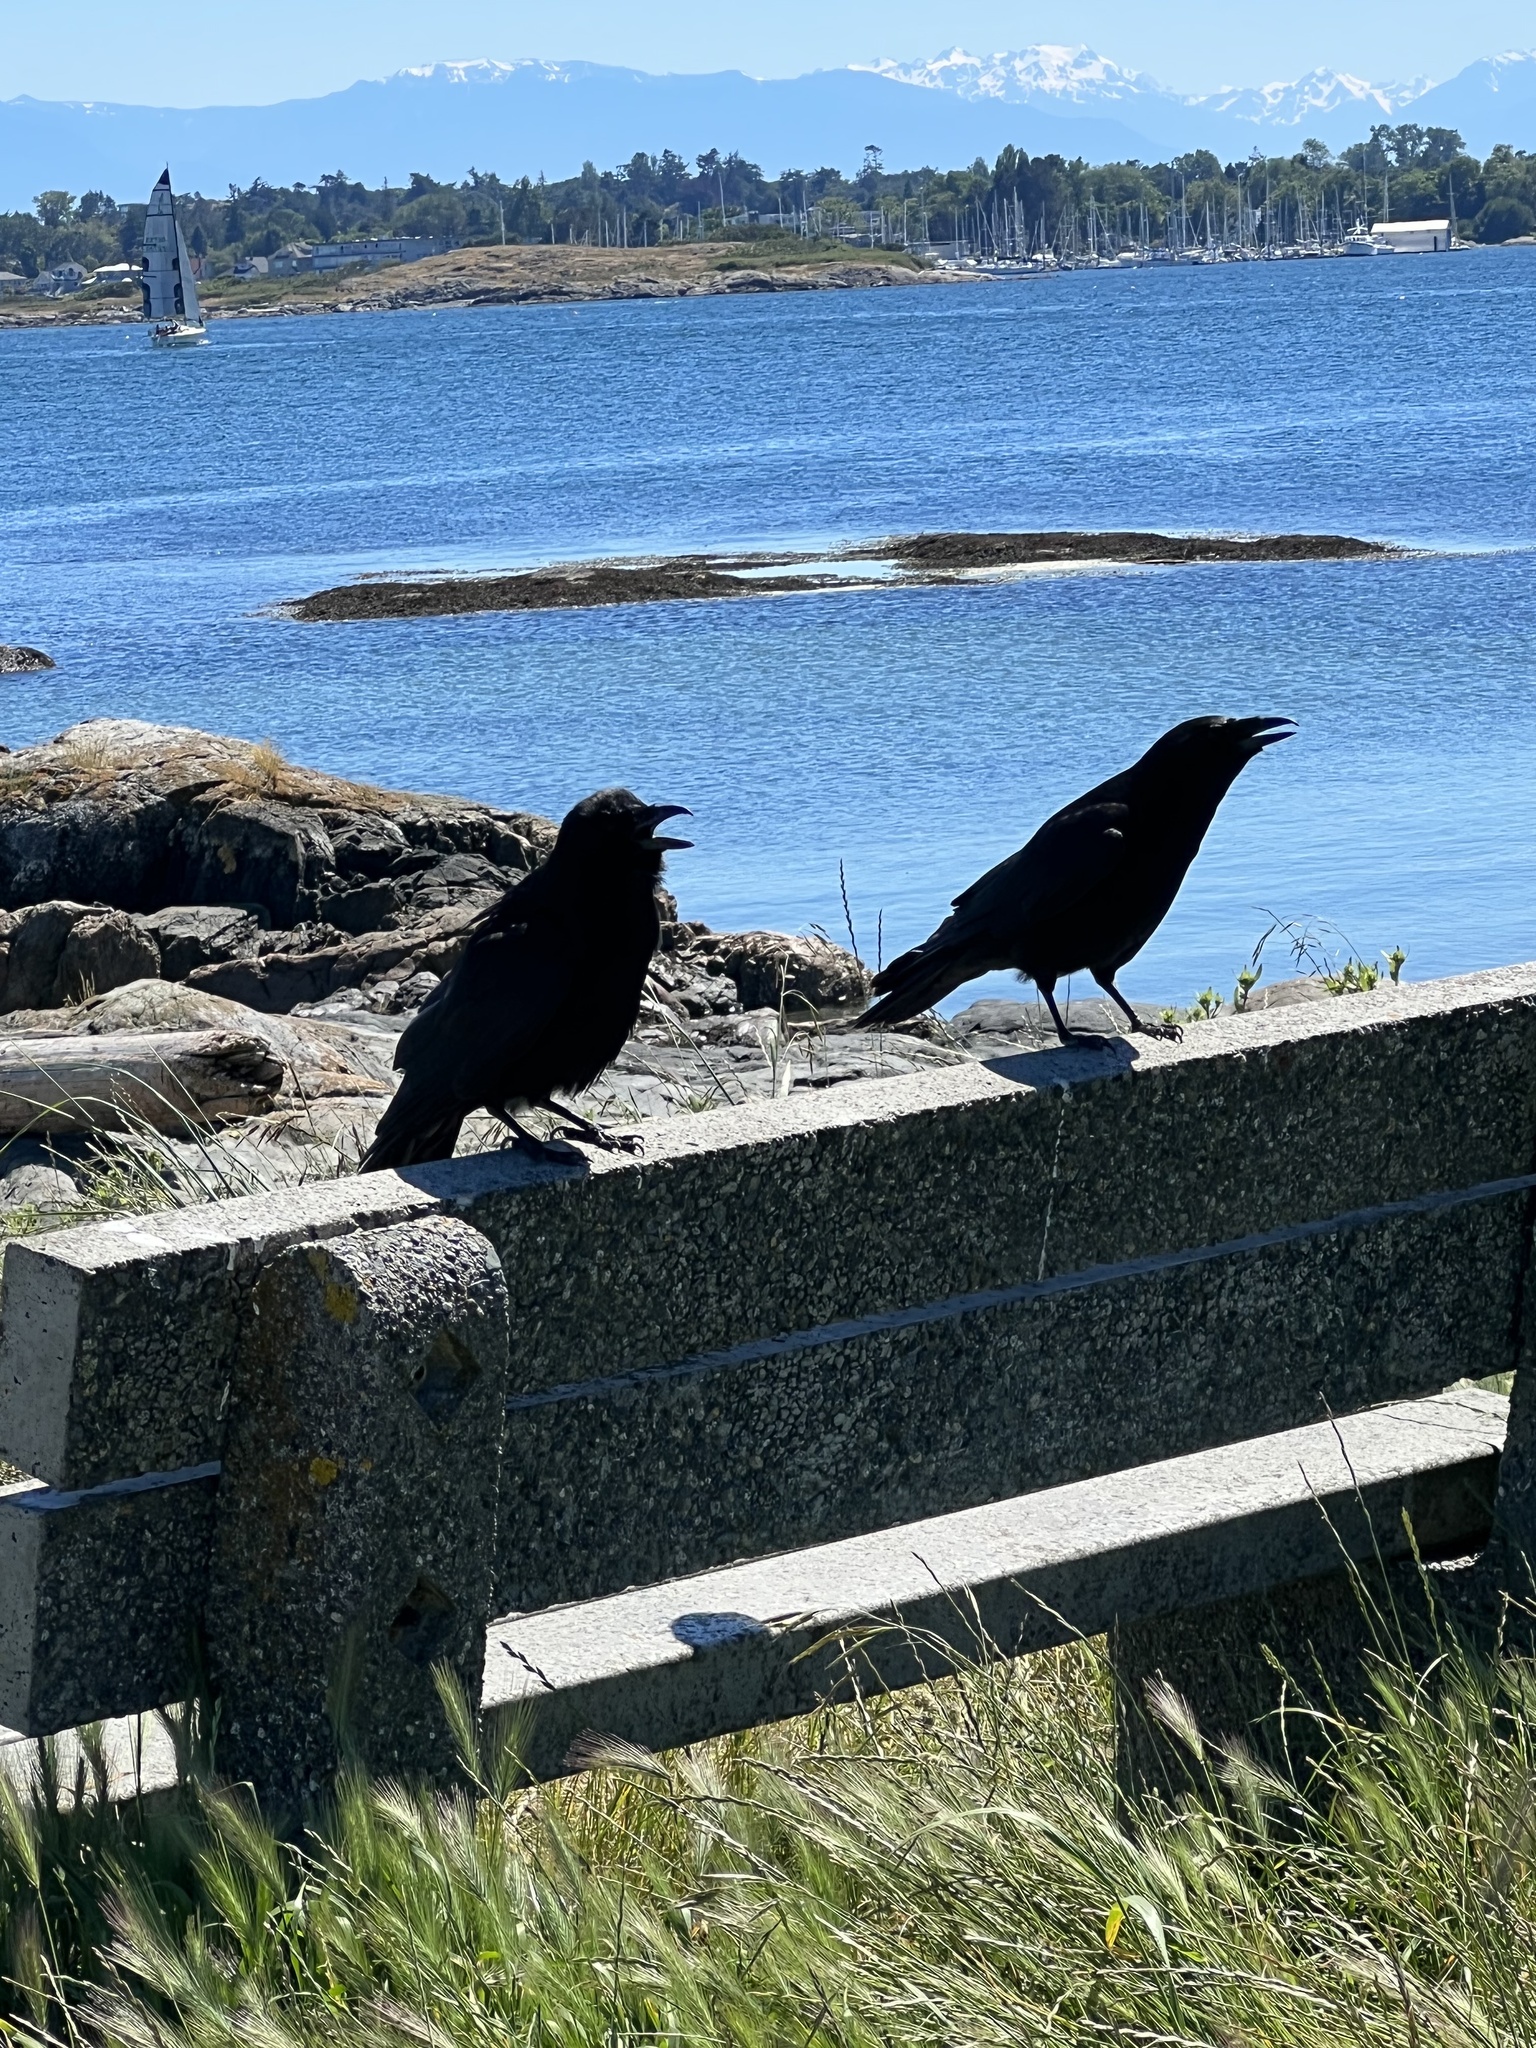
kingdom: Animalia
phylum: Chordata
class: Aves
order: Passeriformes
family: Corvidae
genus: Corvus
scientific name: Corvus brachyrhynchos
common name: American crow
